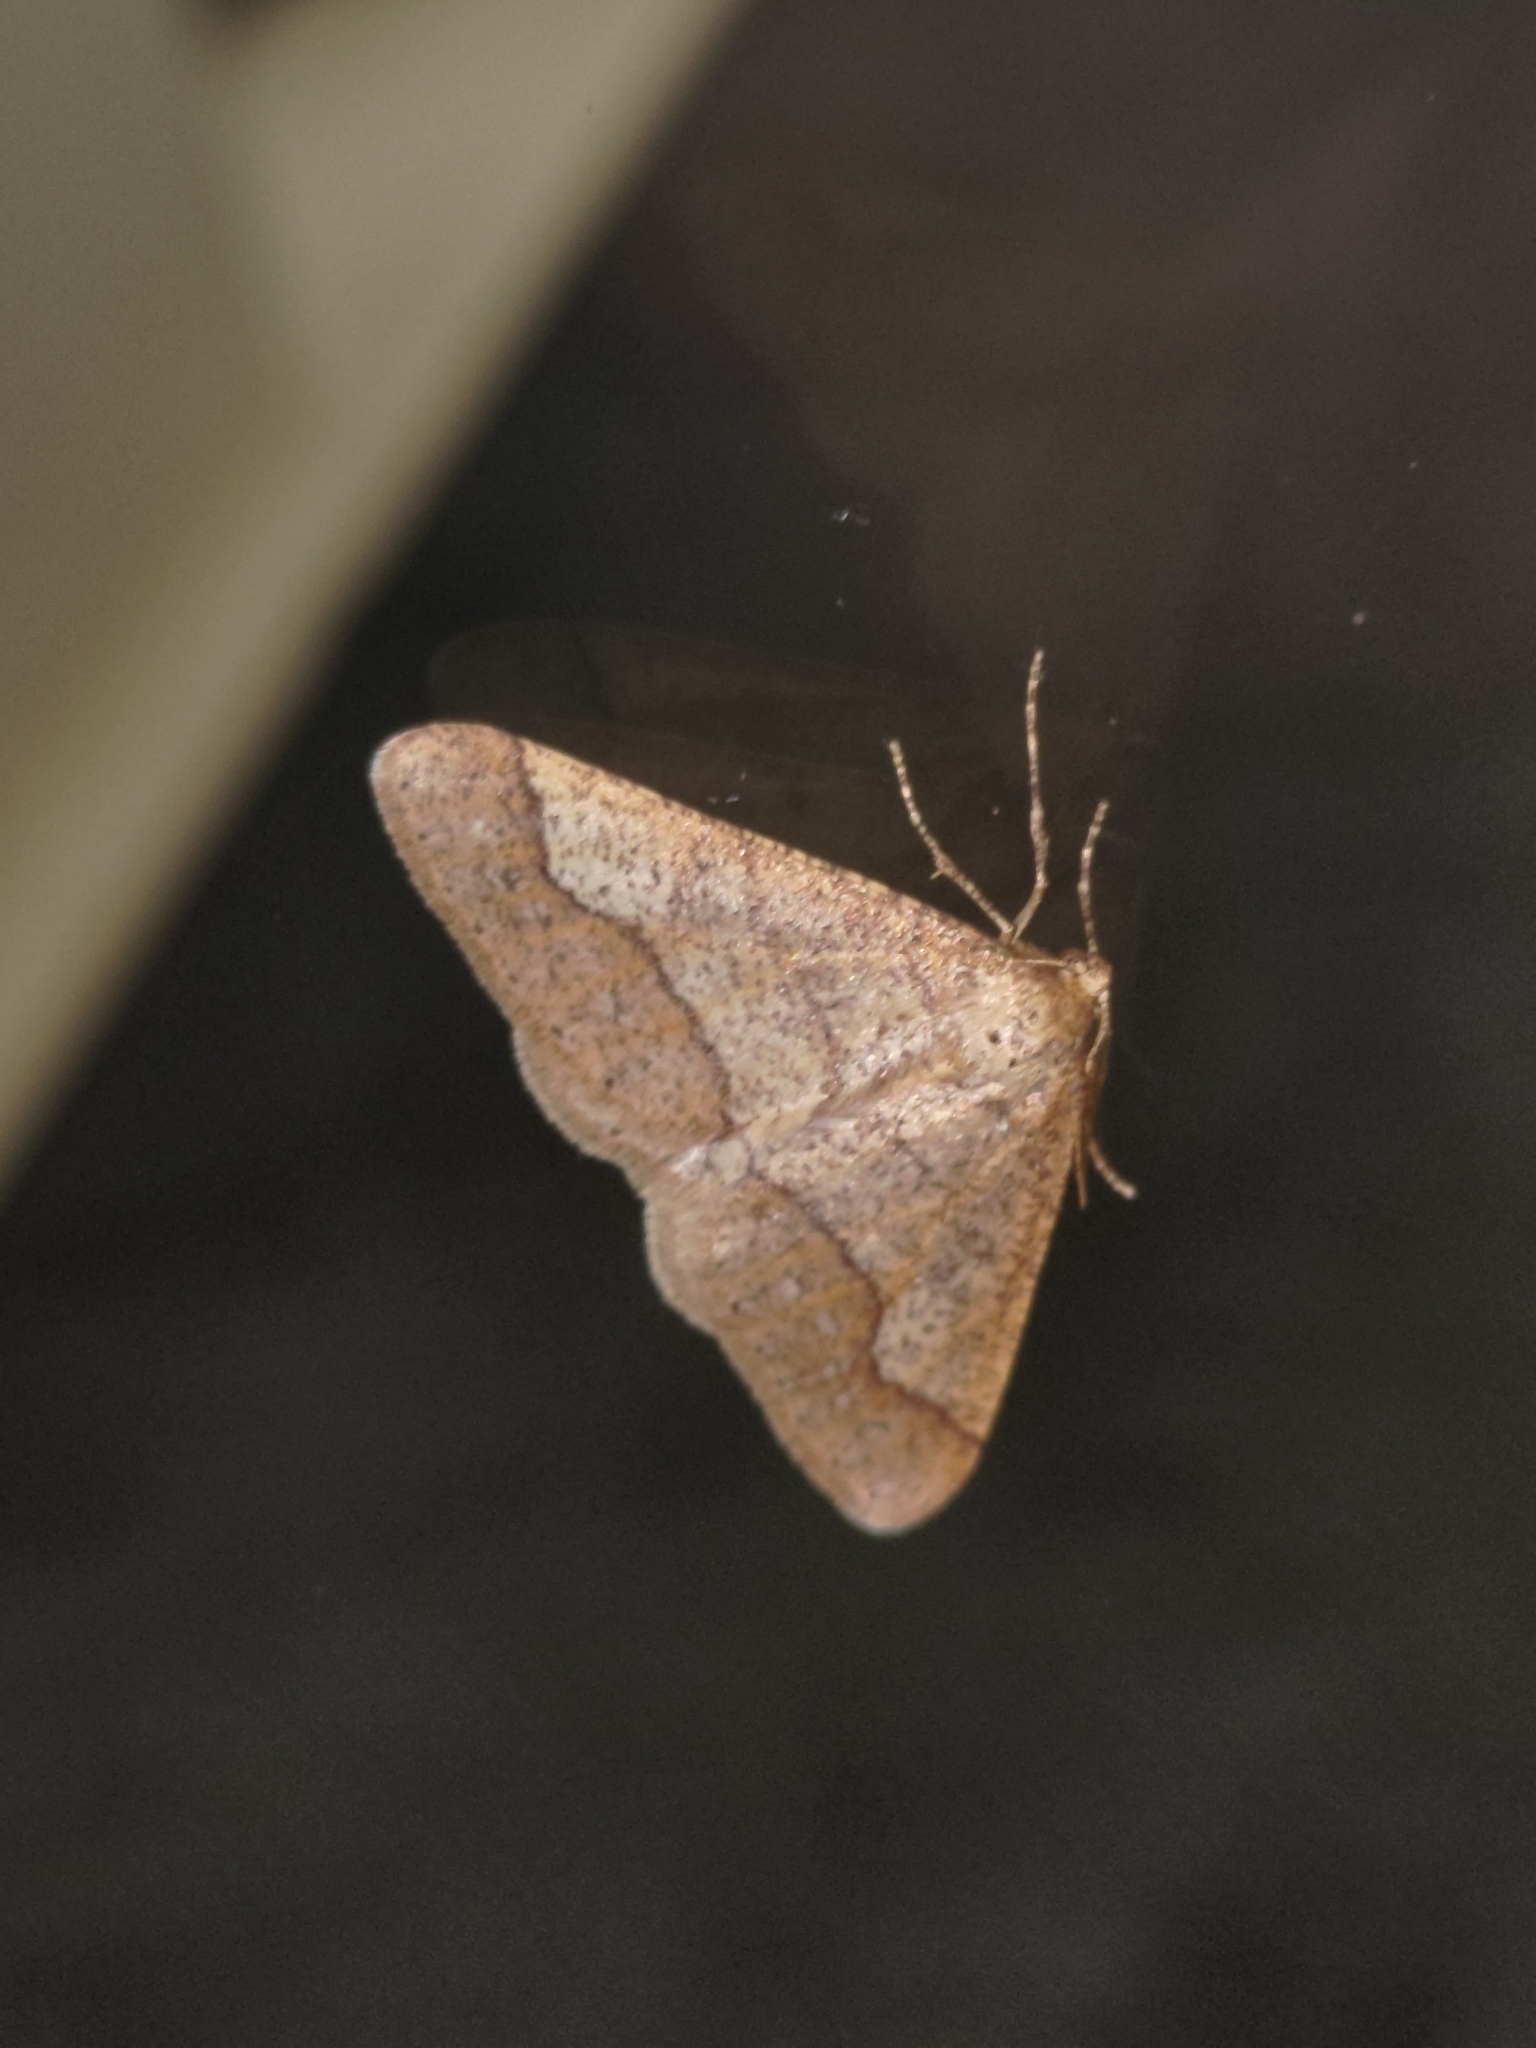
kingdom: Animalia
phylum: Arthropoda
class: Insecta
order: Lepidoptera
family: Geometridae
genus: Agriopis
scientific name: Agriopis marginaria
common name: Dotted border
